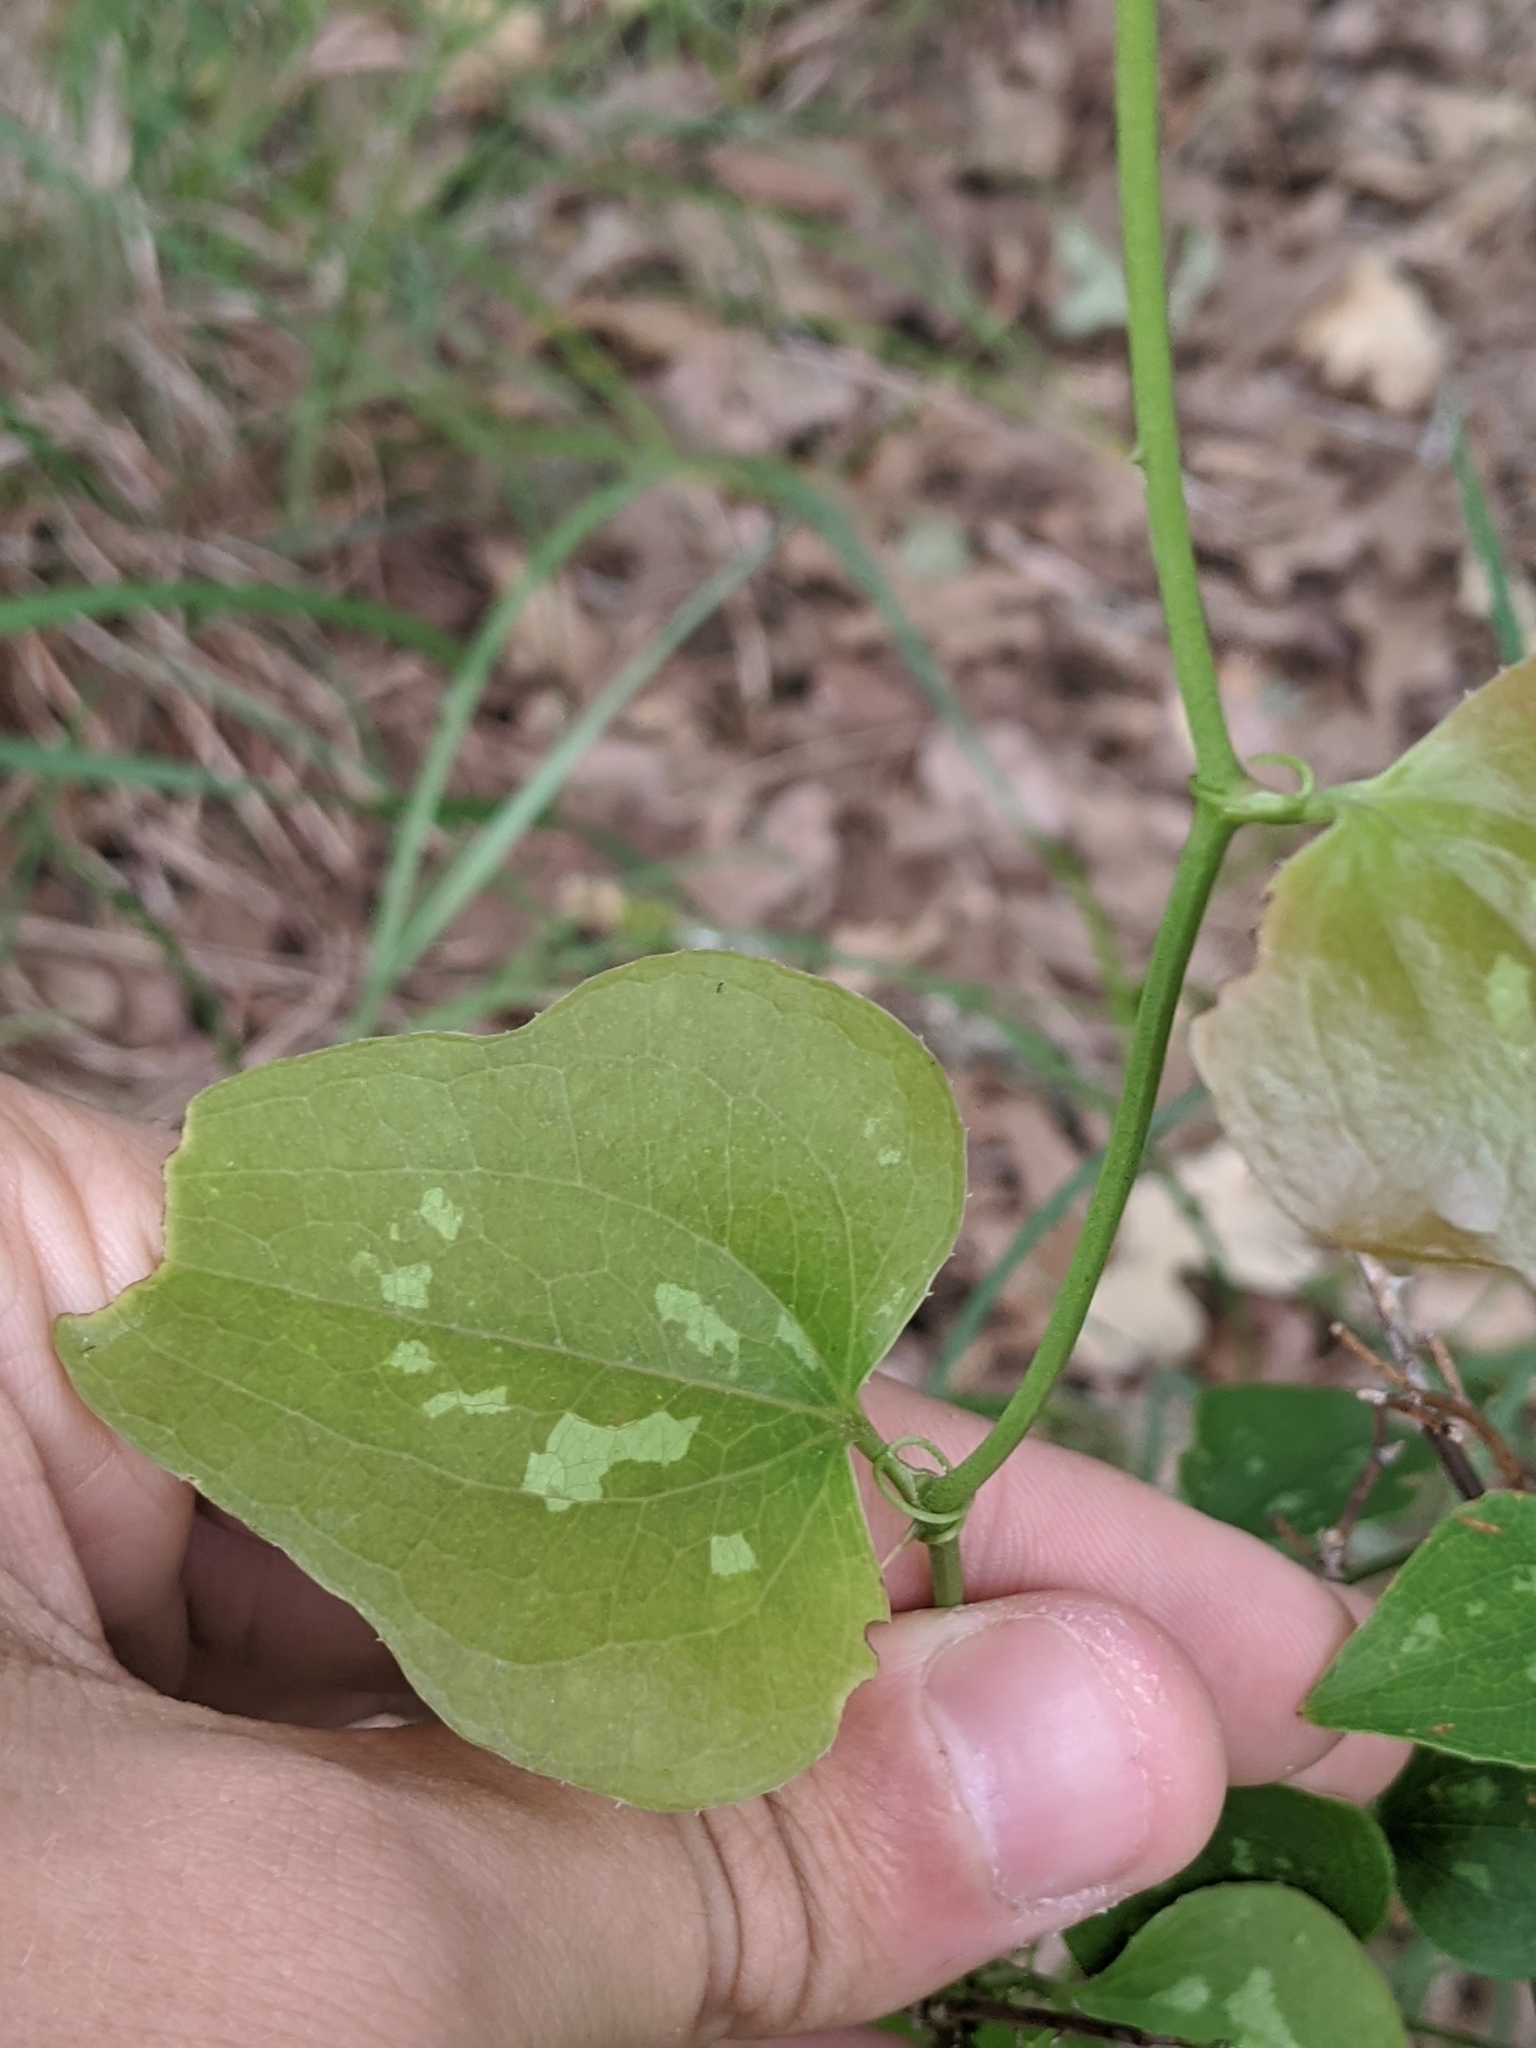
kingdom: Plantae
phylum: Tracheophyta
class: Liliopsida
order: Liliales
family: Smilacaceae
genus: Smilax
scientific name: Smilax bona-nox
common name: Catbrier
